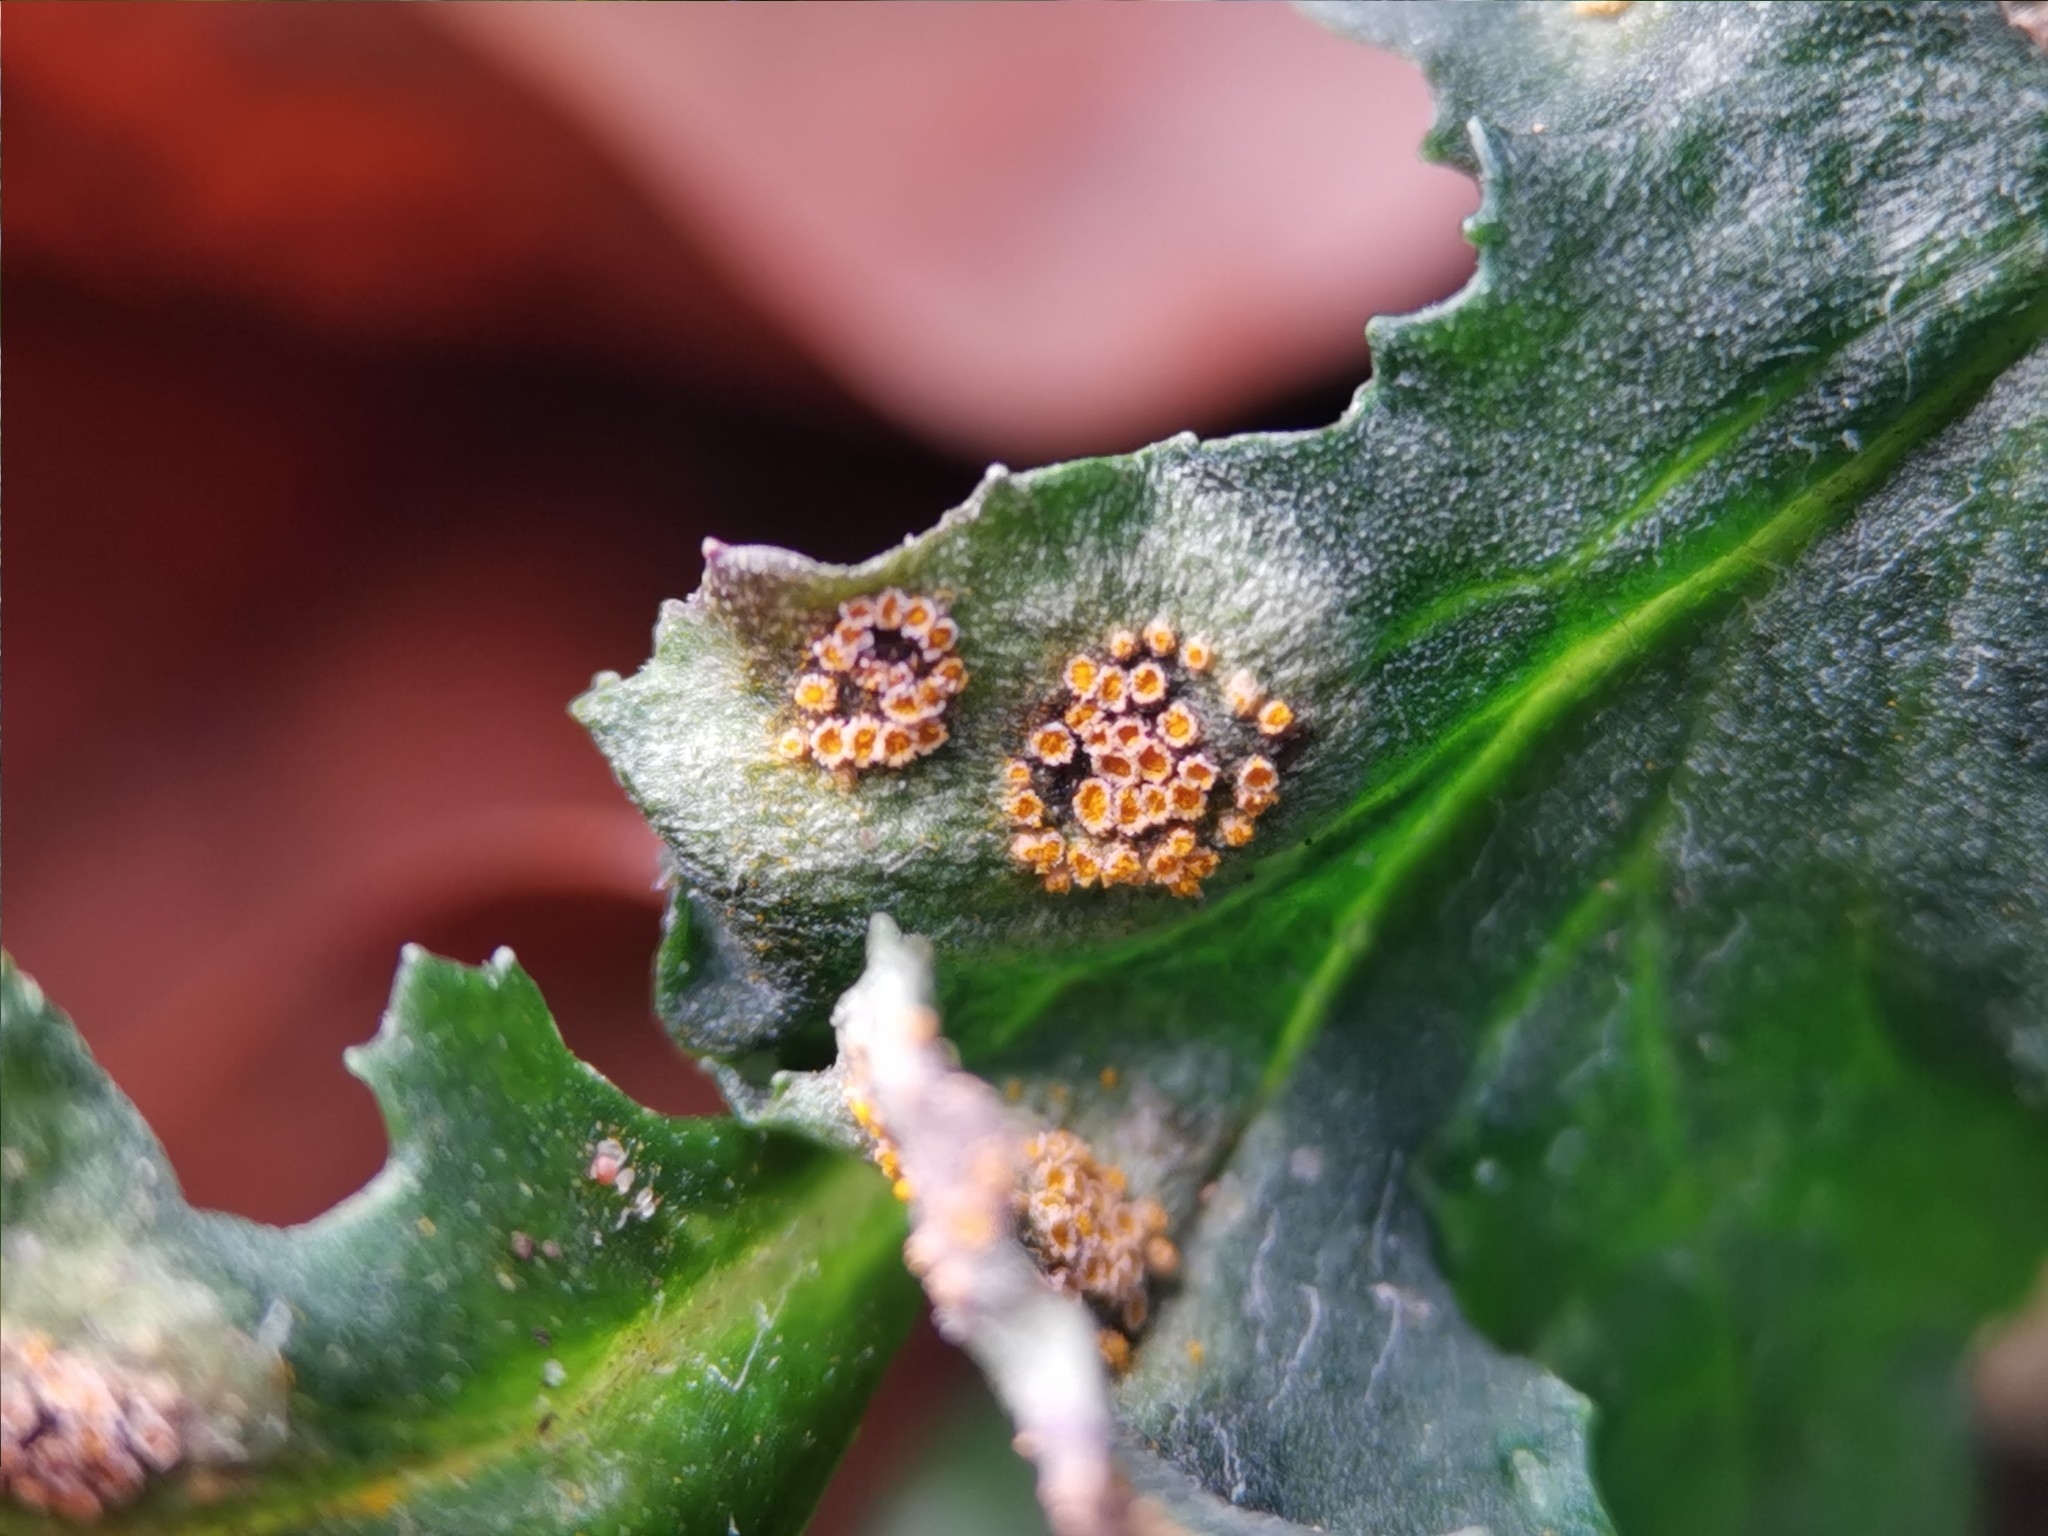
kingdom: Fungi
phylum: Basidiomycota
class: Pucciniomycetes
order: Pucciniales
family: Pucciniaceae
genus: Puccinia
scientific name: Puccinia lagenophorae
